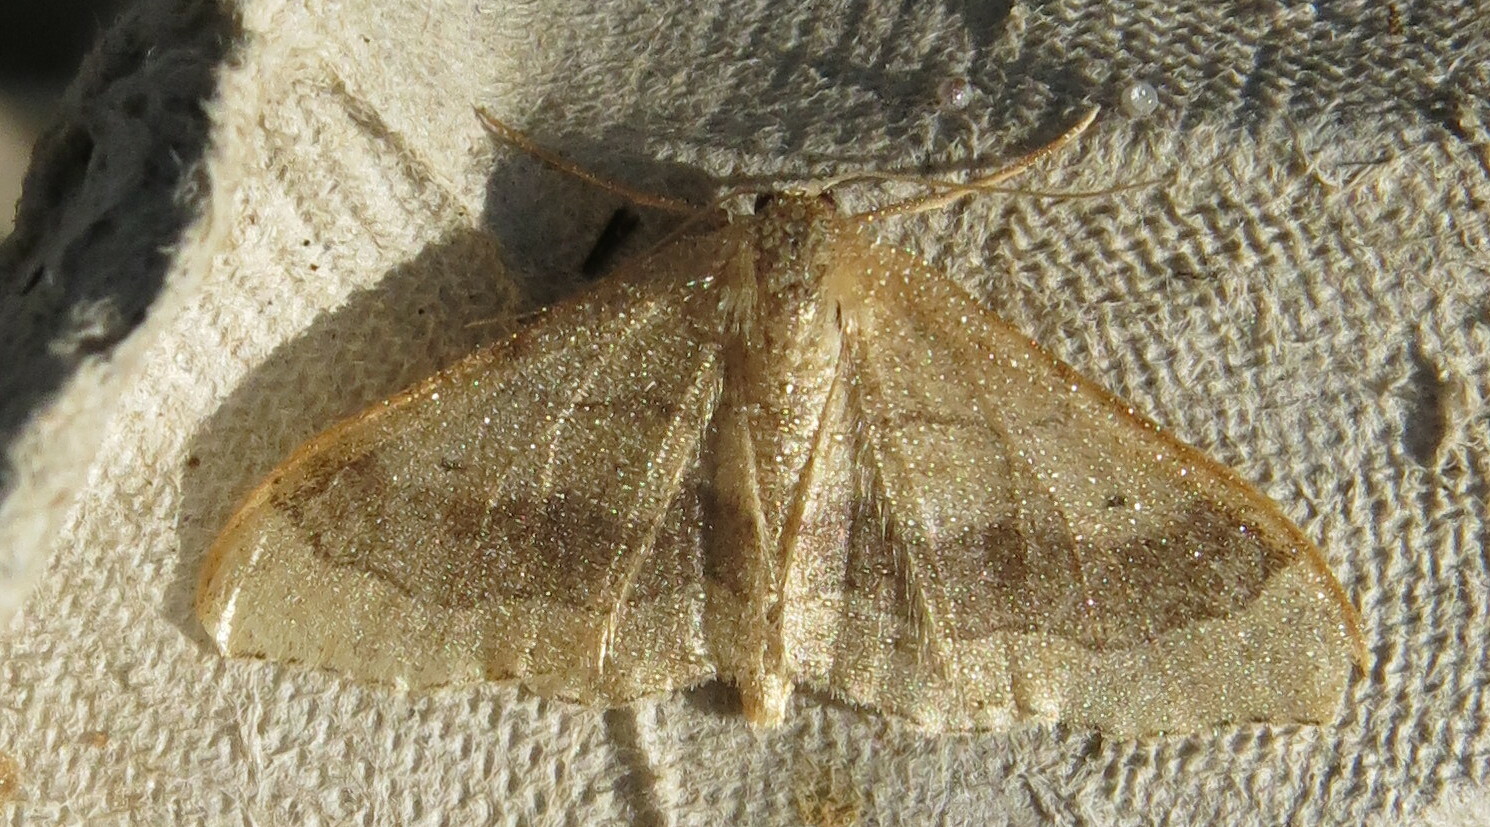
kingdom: Animalia
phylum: Arthropoda
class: Insecta
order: Lepidoptera
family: Geometridae
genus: Idaea
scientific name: Idaea aversata
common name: Riband wave
